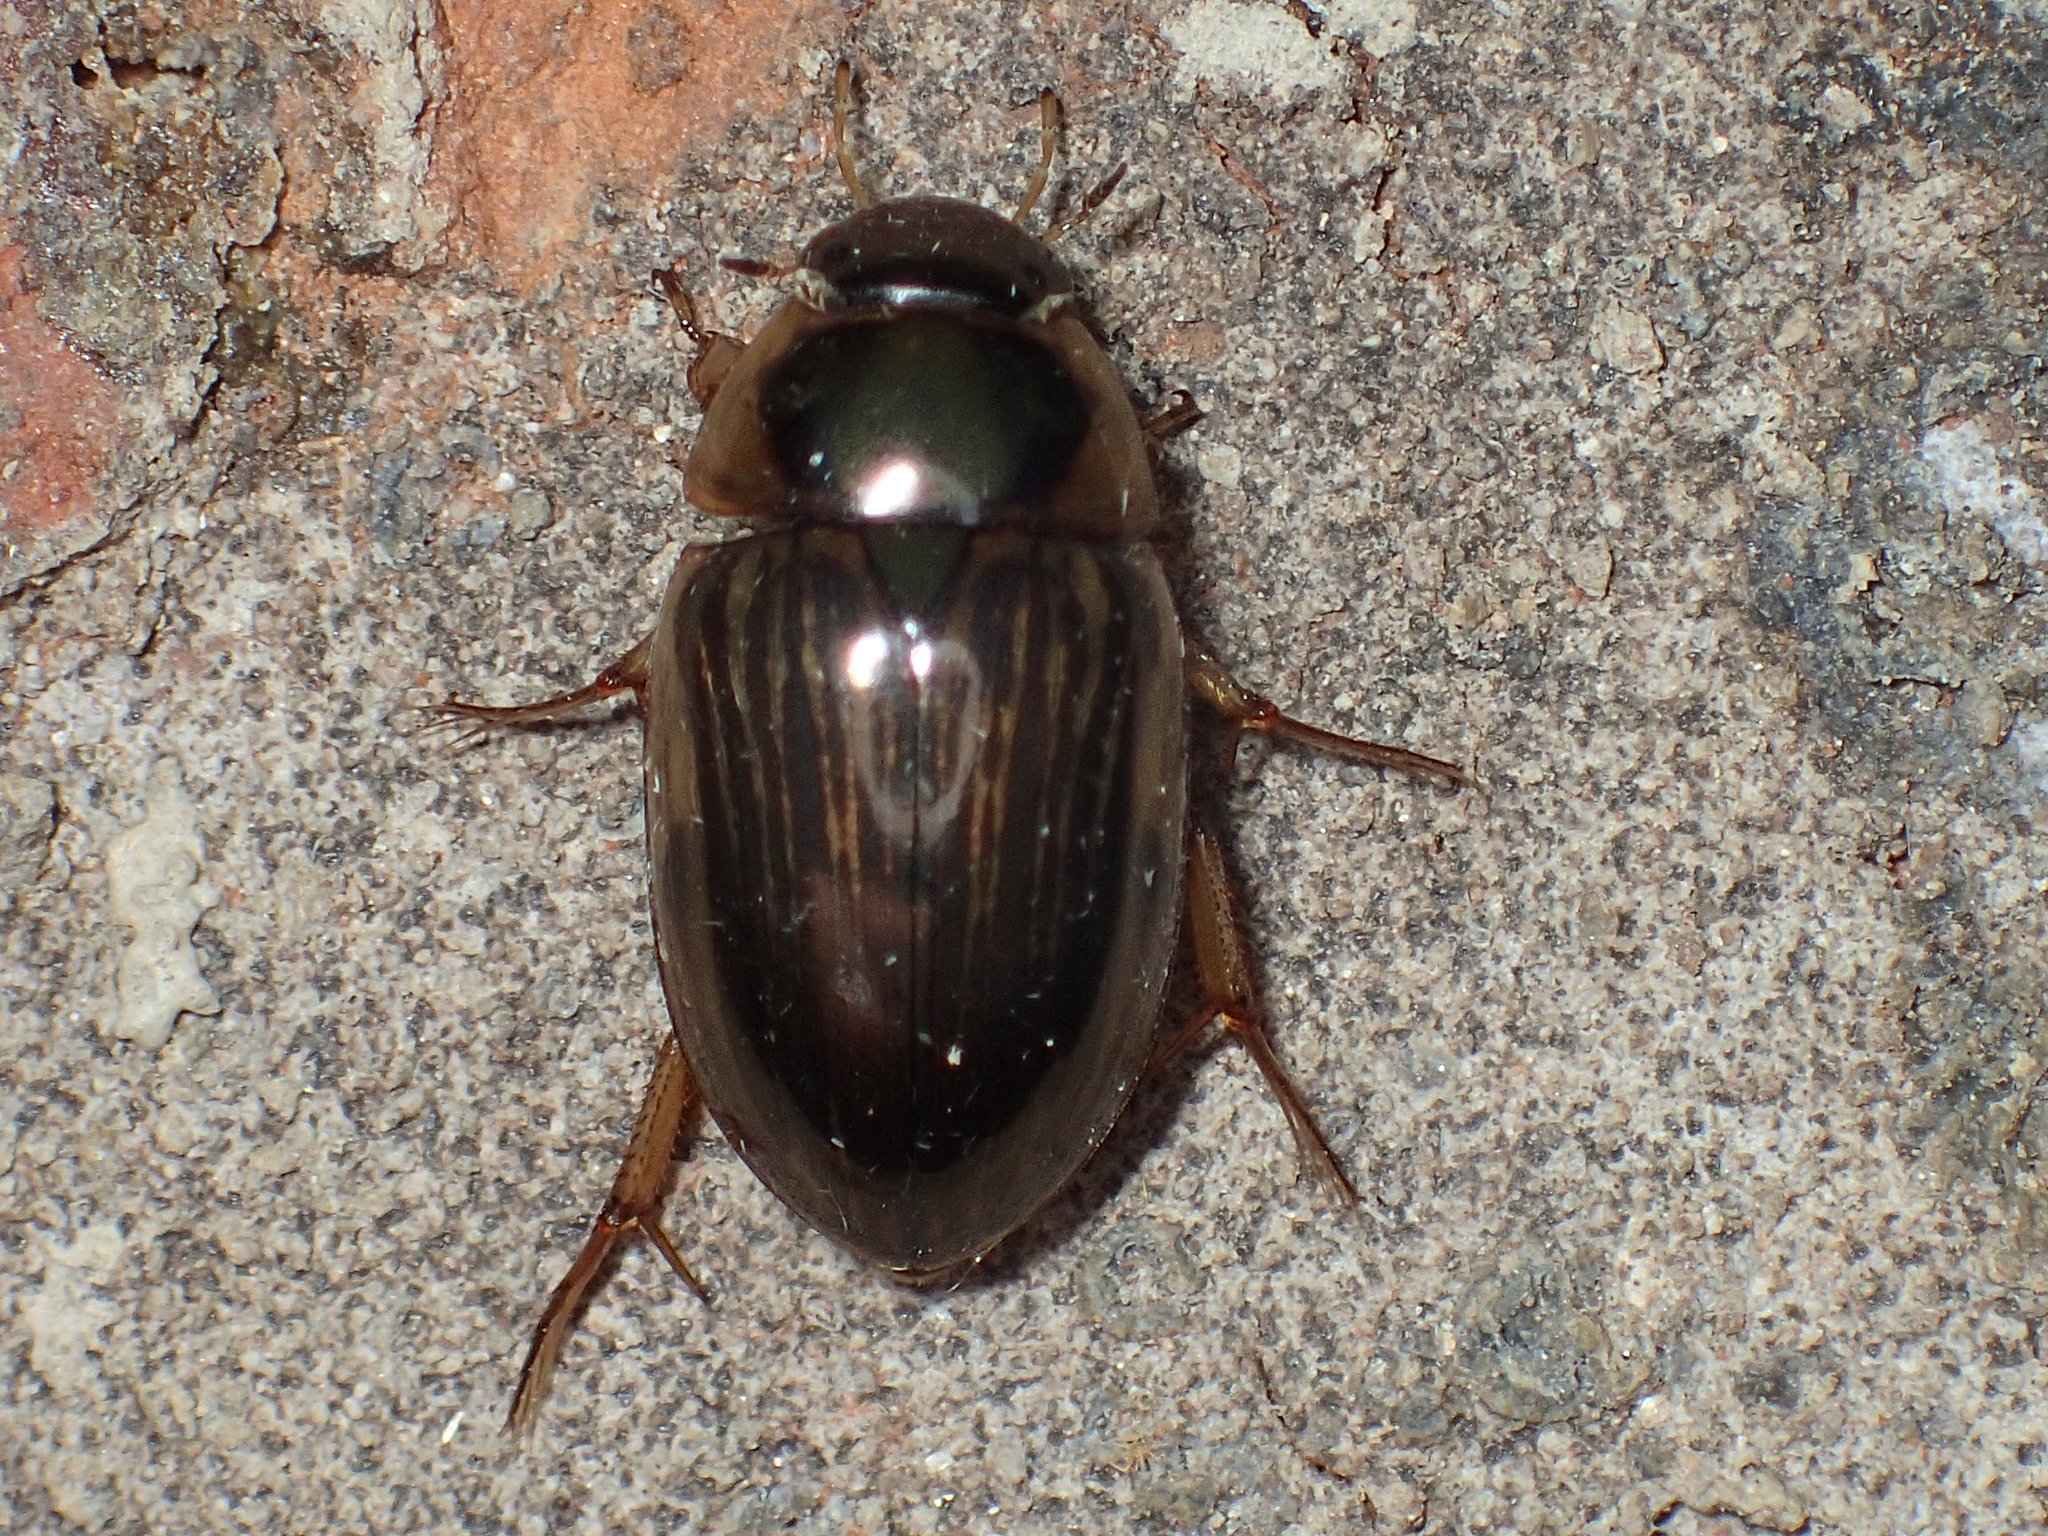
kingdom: Animalia
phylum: Arthropoda
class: Insecta
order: Coleoptera
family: Hydrophilidae
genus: Tropisternus
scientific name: Tropisternus collaris
